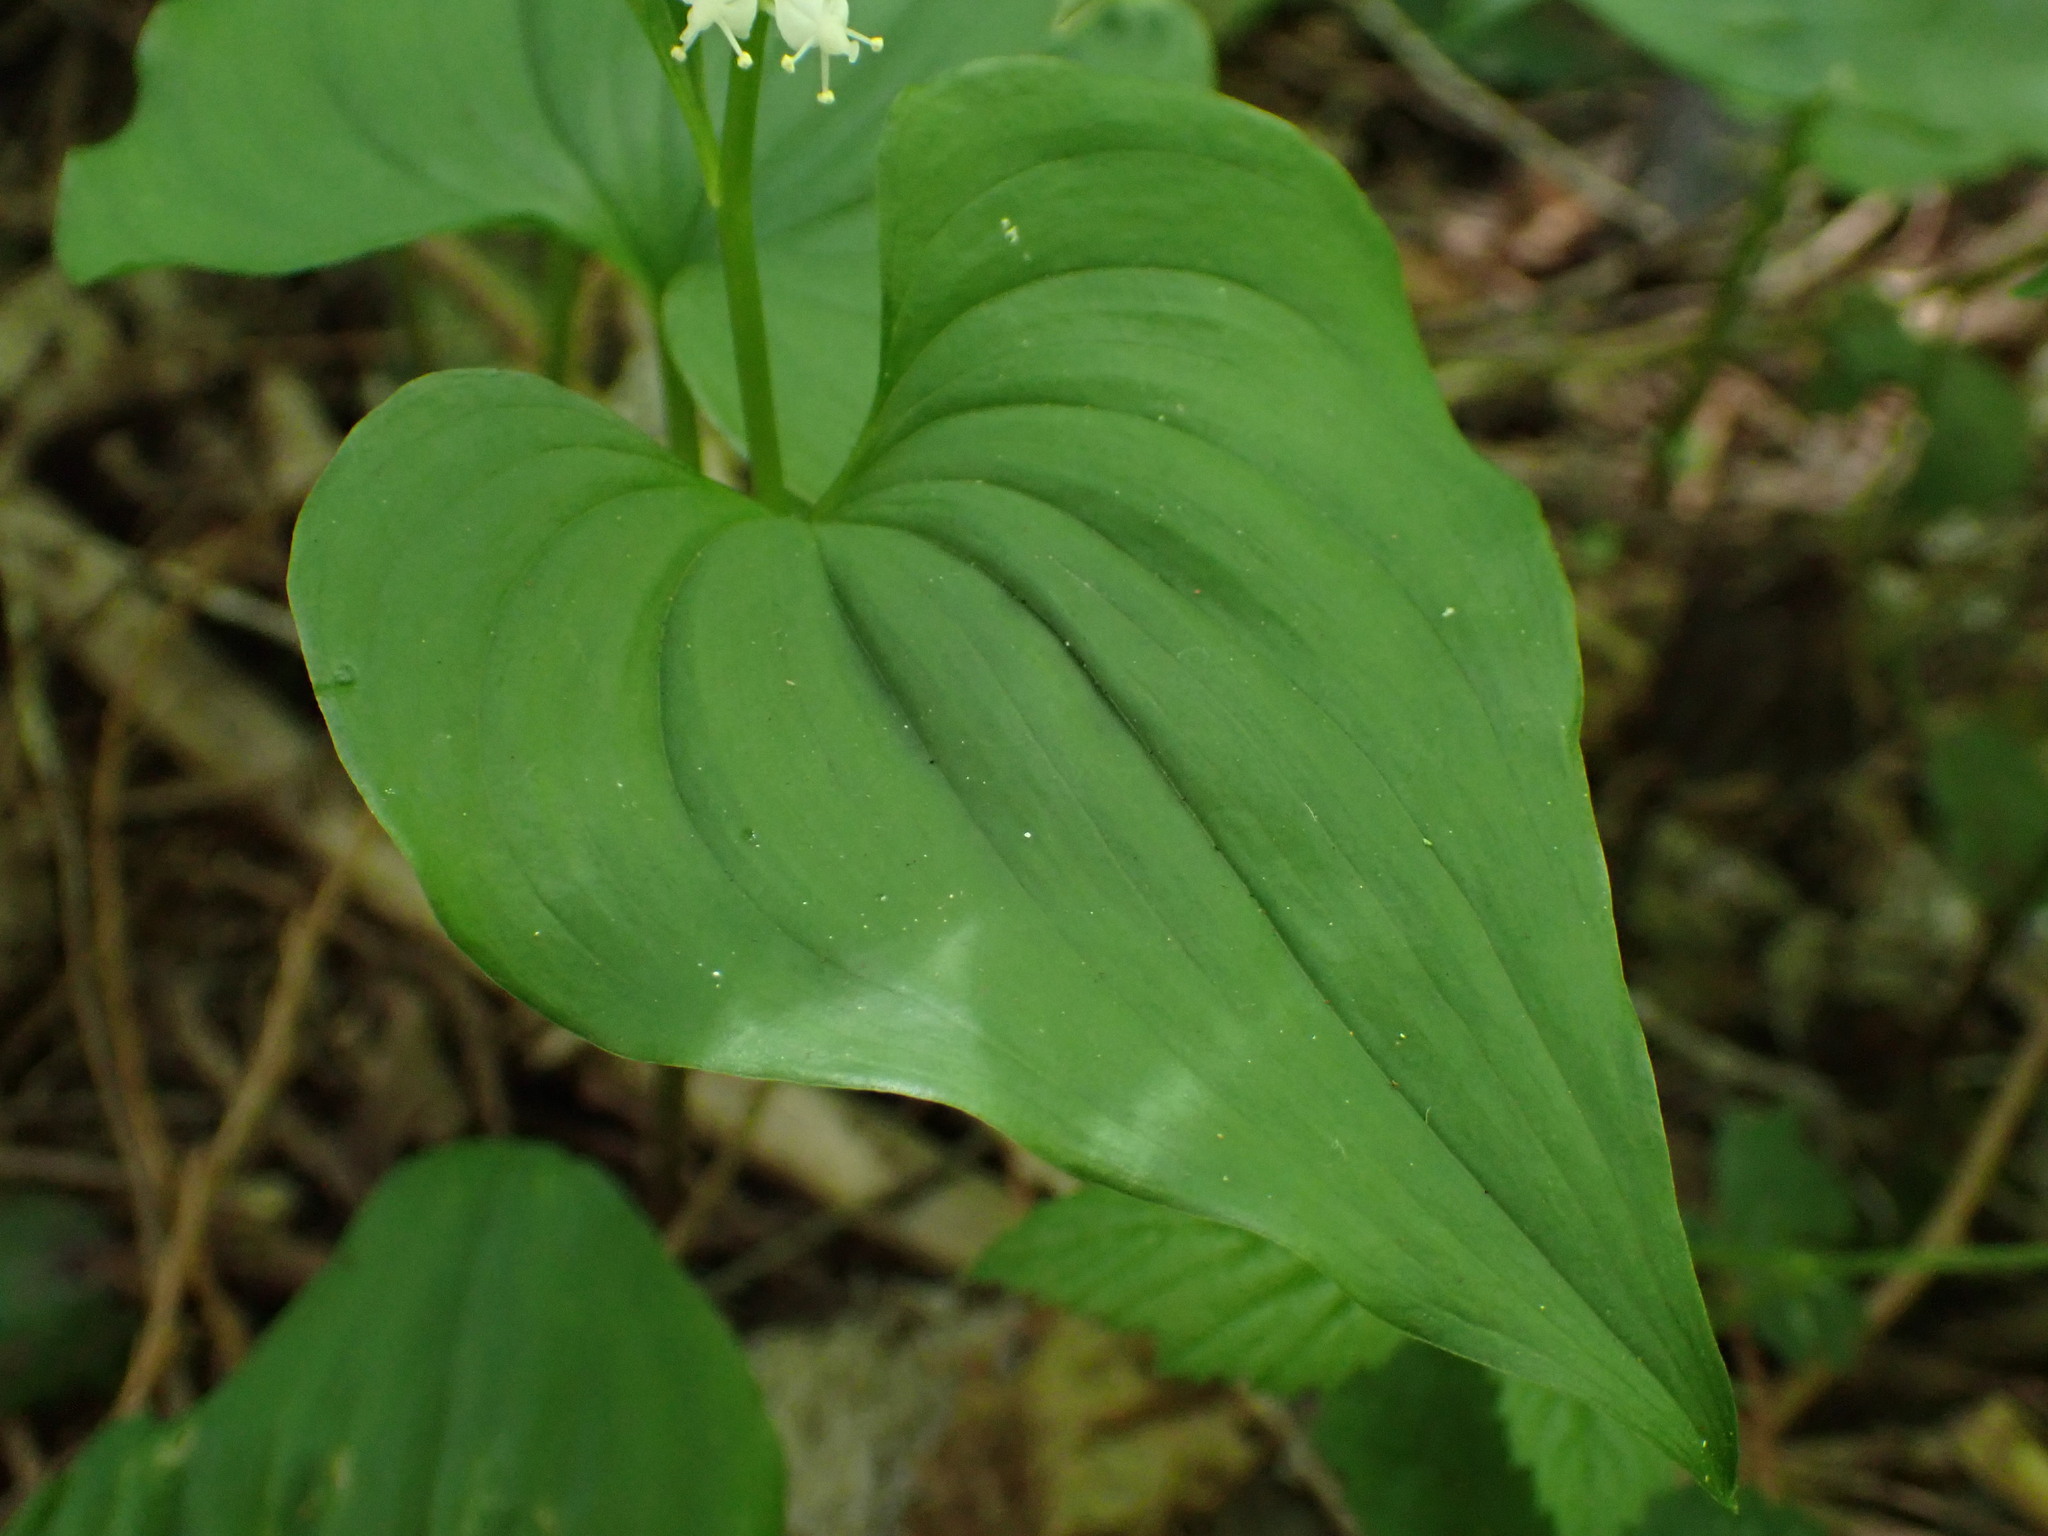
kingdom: Plantae
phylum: Tracheophyta
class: Liliopsida
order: Asparagales
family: Asparagaceae
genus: Maianthemum
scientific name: Maianthemum dilatatum
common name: False lily-of-the-valley
